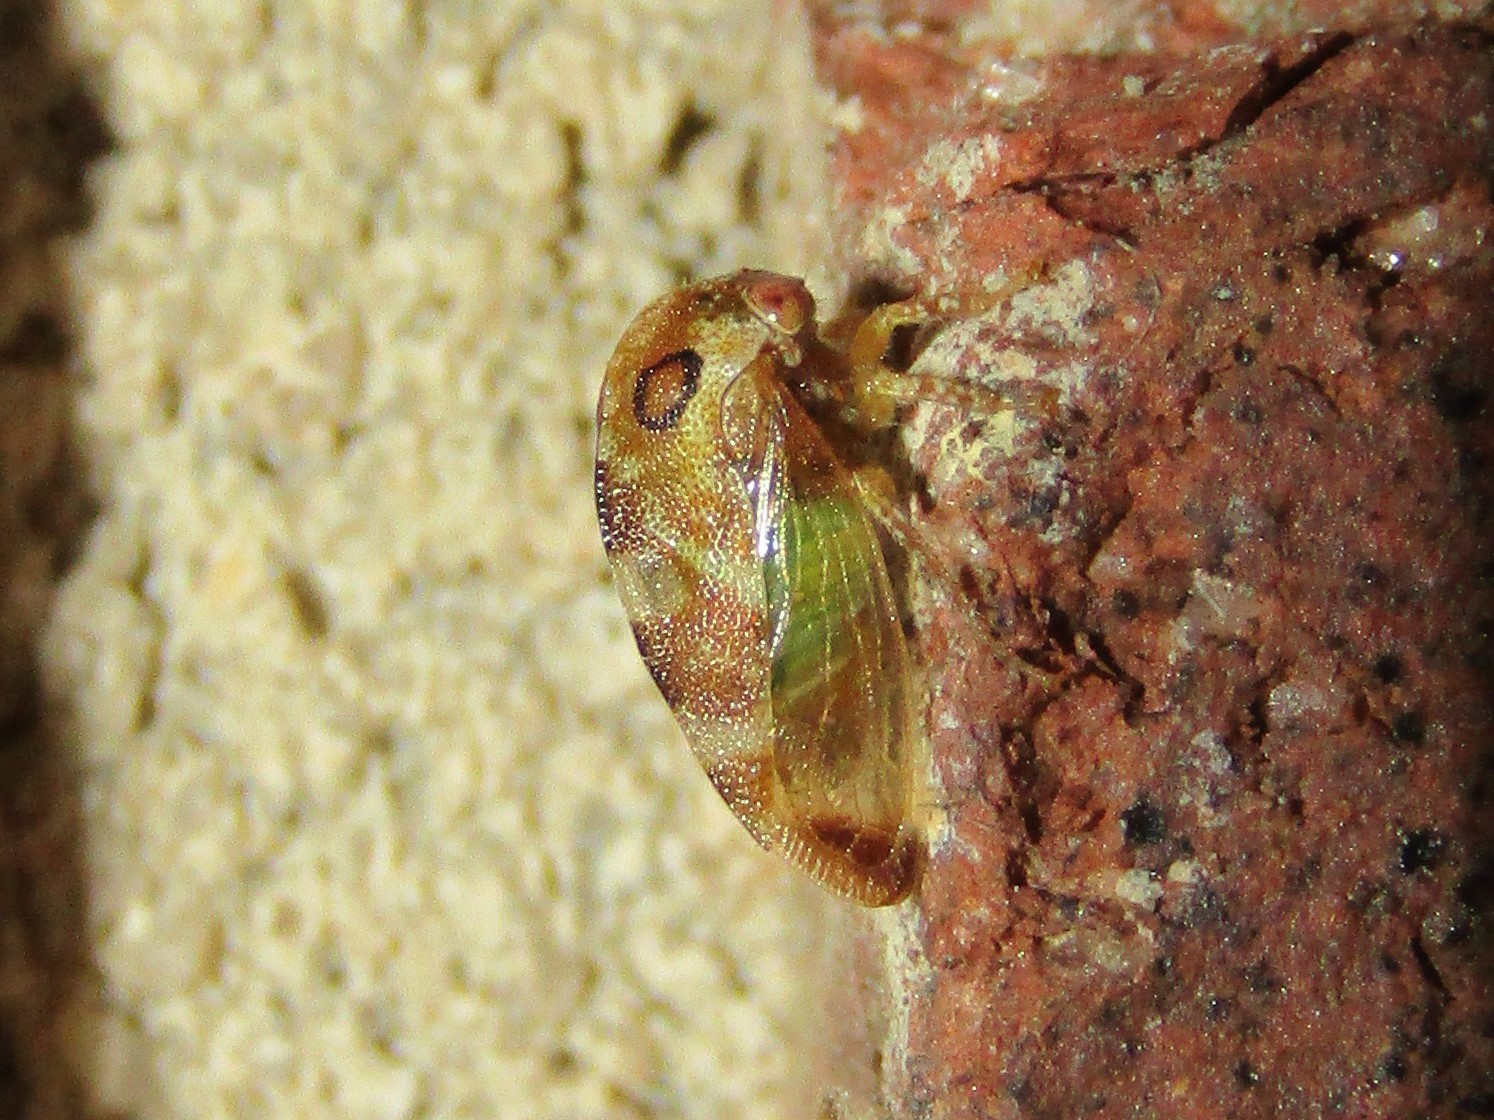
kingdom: Animalia
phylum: Arthropoda
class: Insecta
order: Hemiptera
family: Membracidae
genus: Cyrtolobus
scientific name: Cyrtolobus togatus
